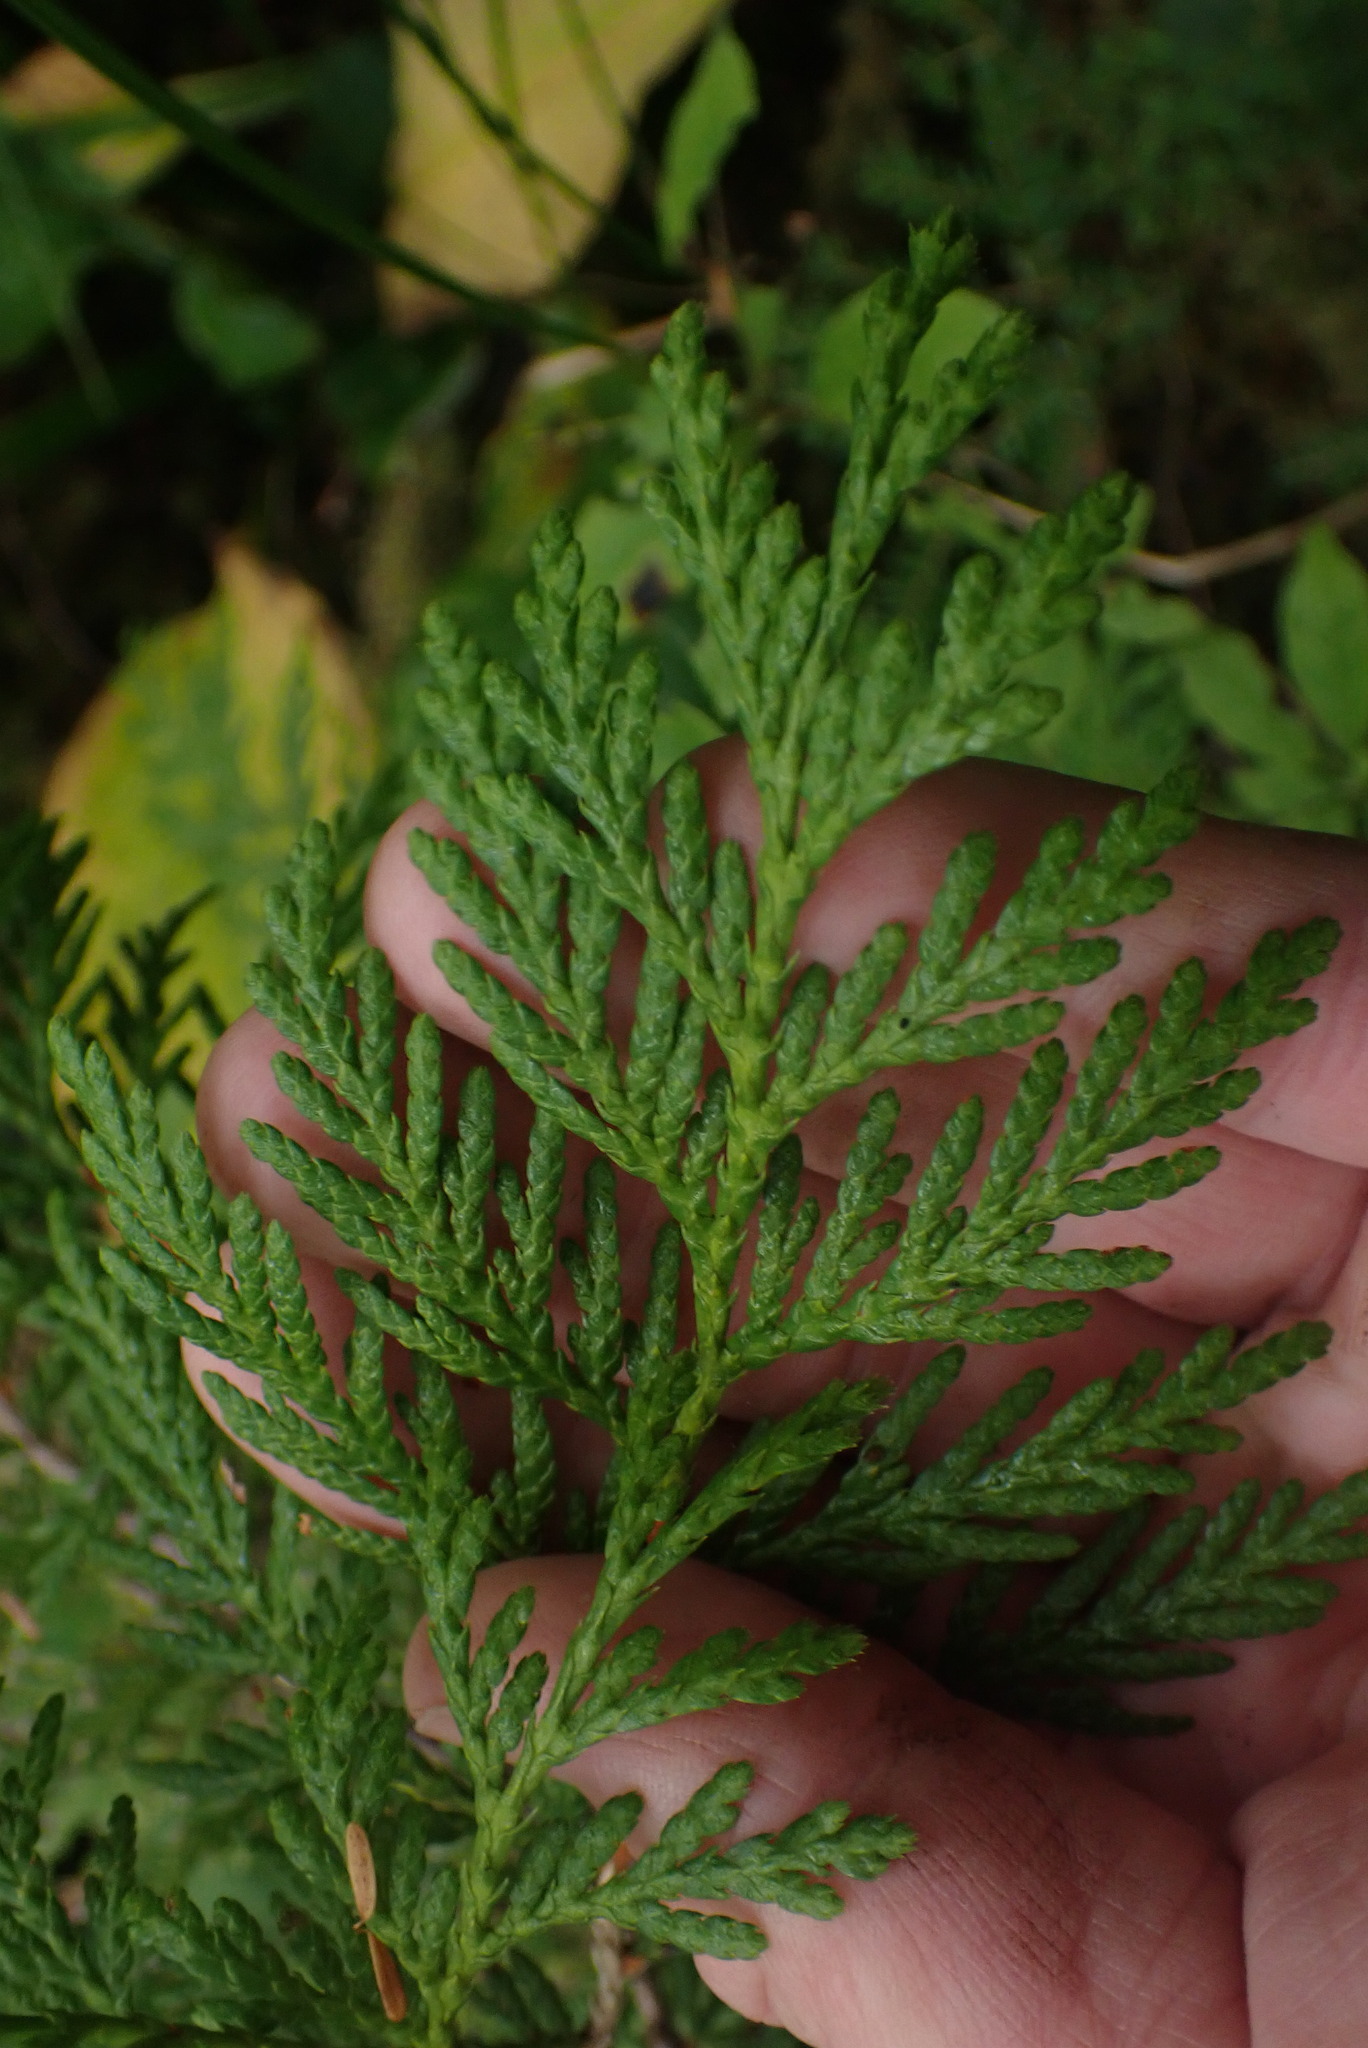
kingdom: Plantae
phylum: Tracheophyta
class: Pinopsida
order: Pinales
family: Cupressaceae
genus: Thuja
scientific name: Thuja plicata
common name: Western red-cedar
